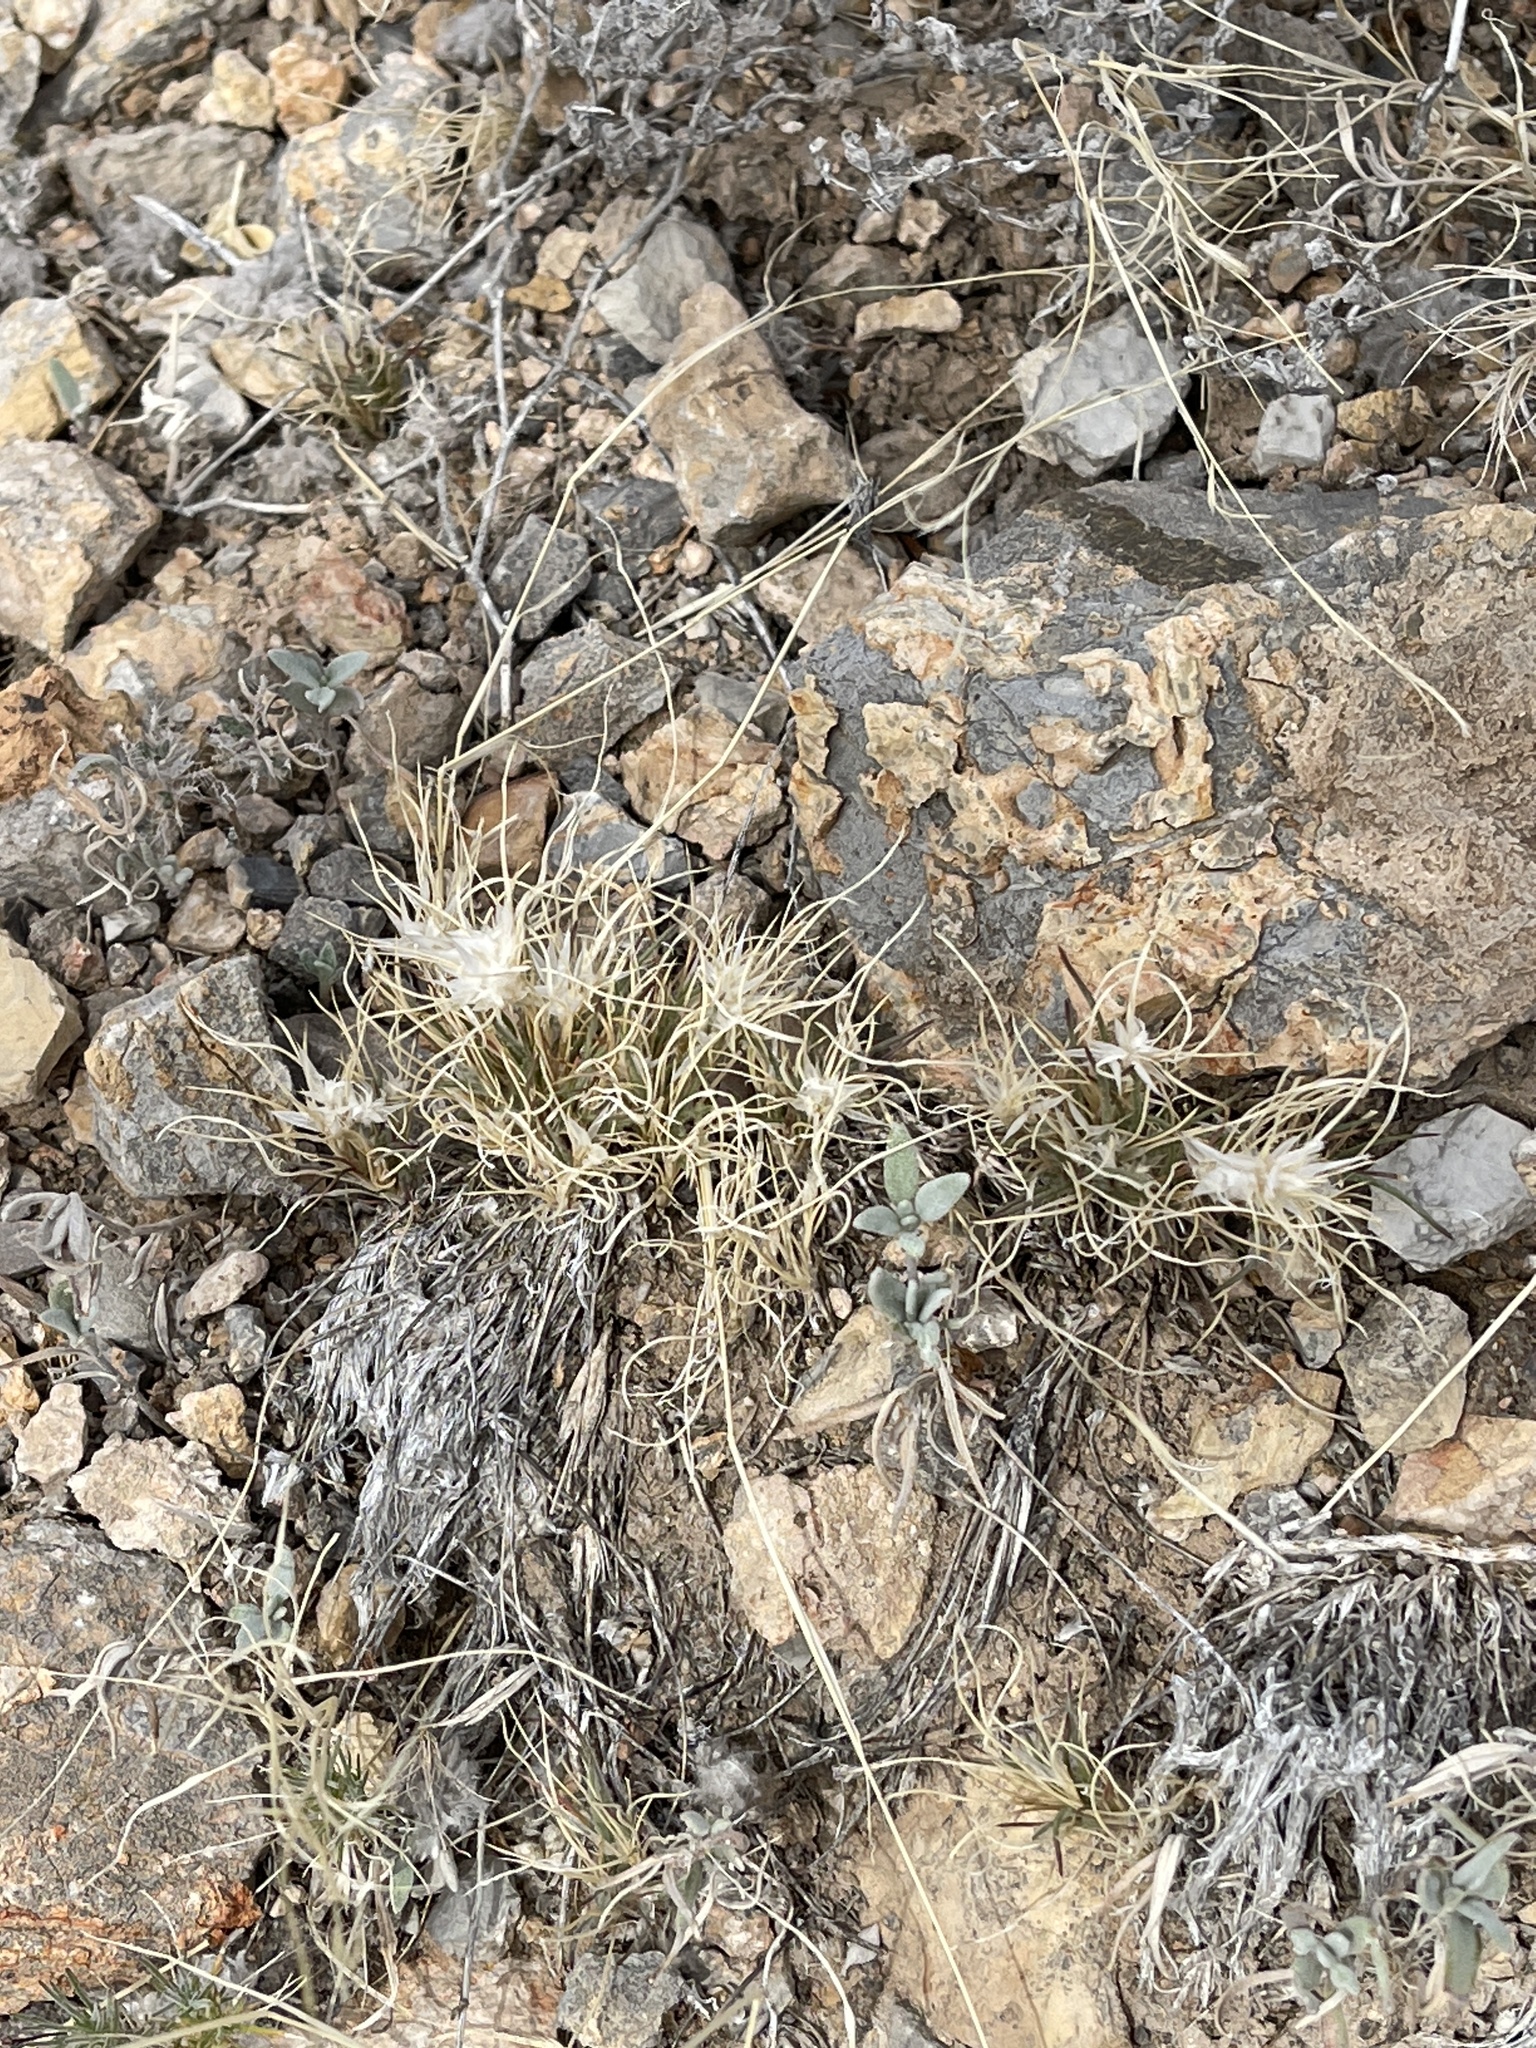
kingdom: Plantae
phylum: Tracheophyta
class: Liliopsida
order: Poales
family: Poaceae
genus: Dasyochloa
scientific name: Dasyochloa pulchella
